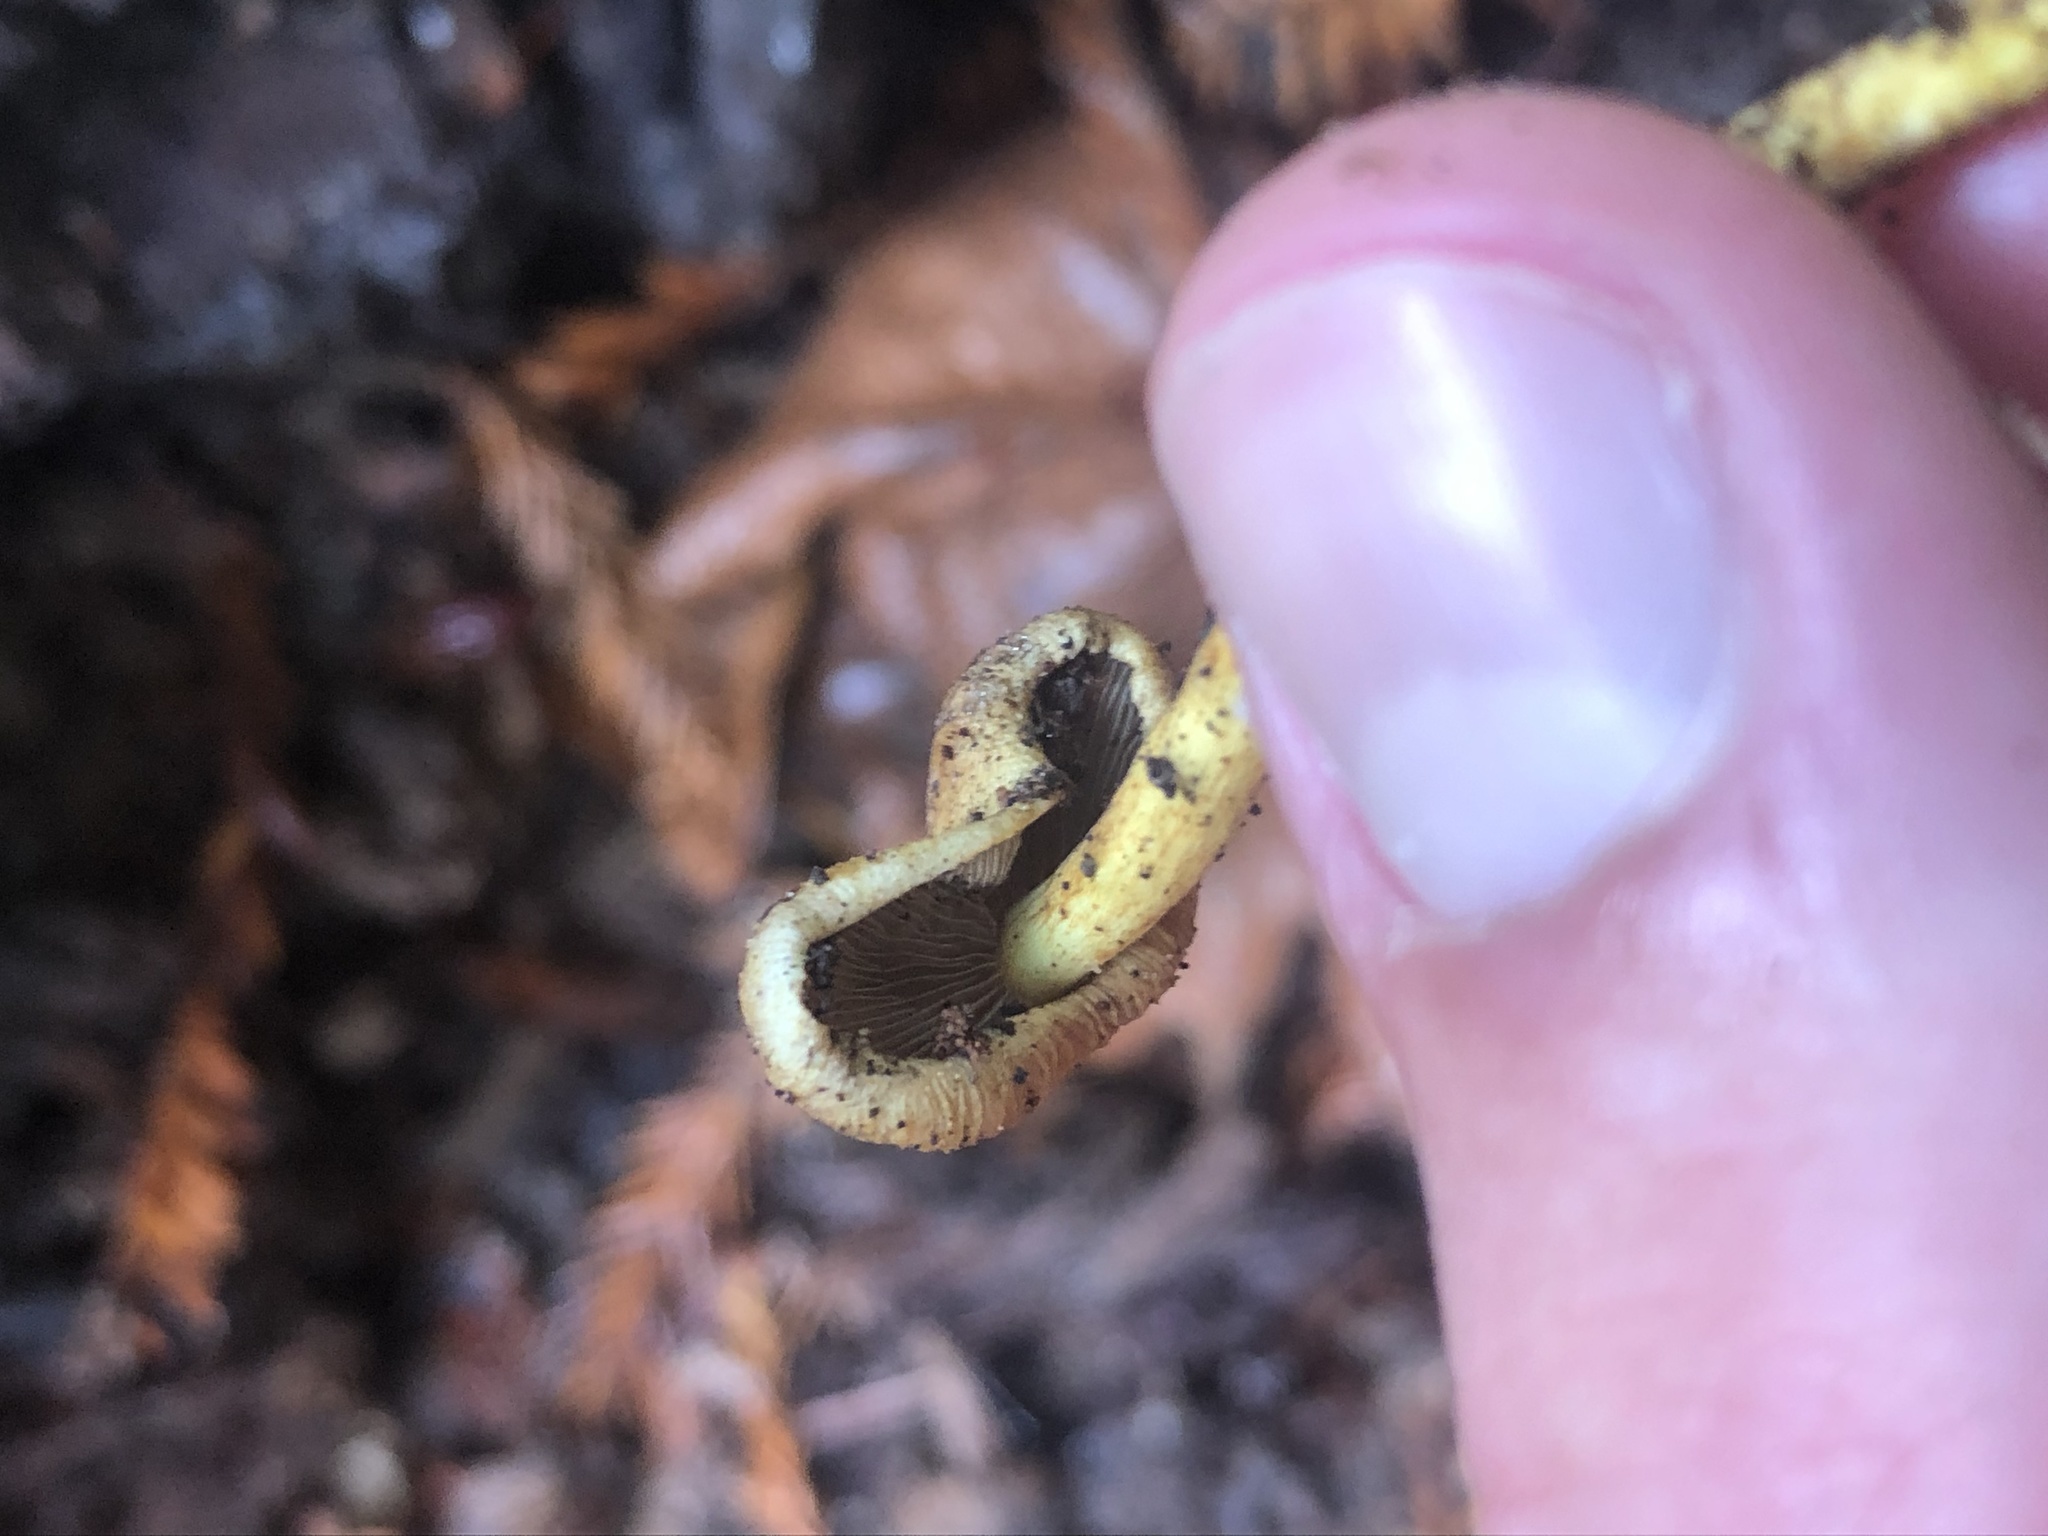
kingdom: Fungi
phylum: Basidiomycota
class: Agaricomycetes
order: Agaricales
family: Strophariaceae
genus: Hypholoma
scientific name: Hypholoma fasciculare
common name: Sulphur tuft
